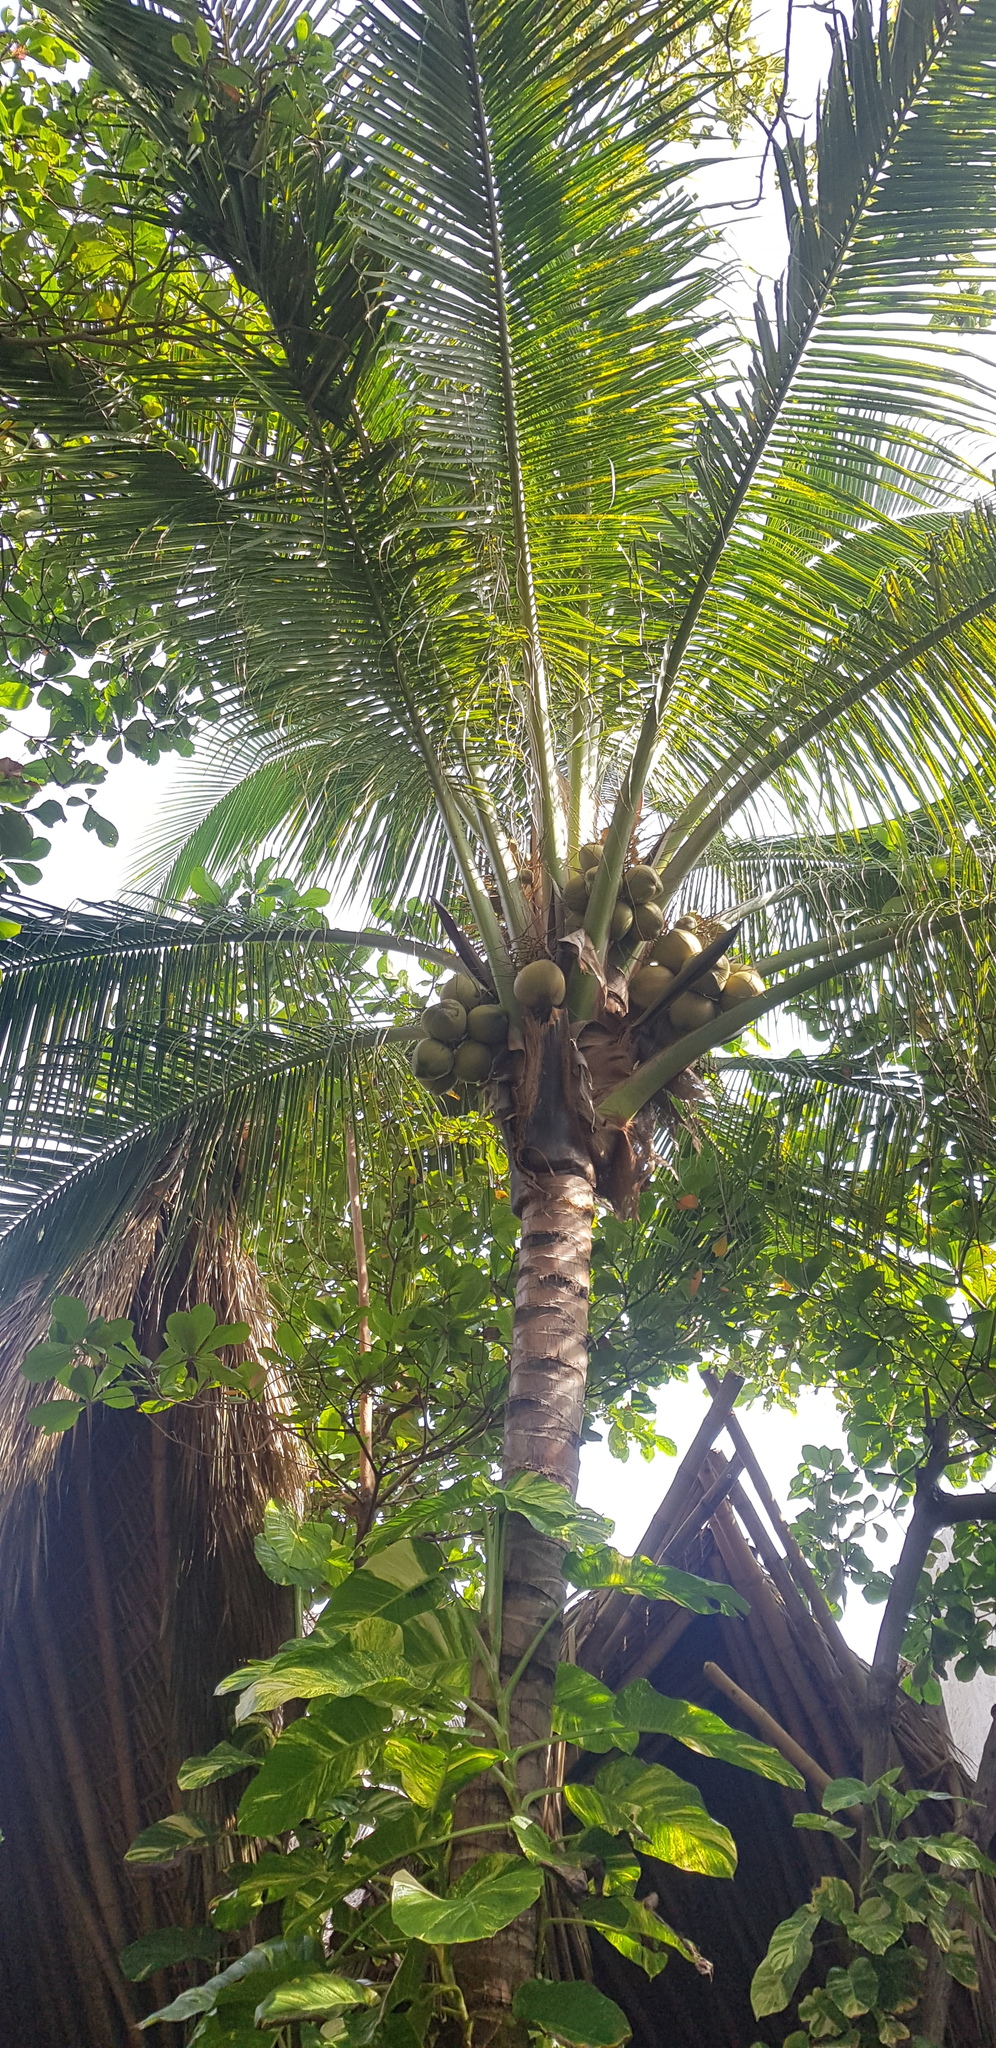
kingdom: Plantae
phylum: Tracheophyta
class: Liliopsida
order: Arecales
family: Arecaceae
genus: Cocos
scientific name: Cocos nucifera
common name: Coconut palm
